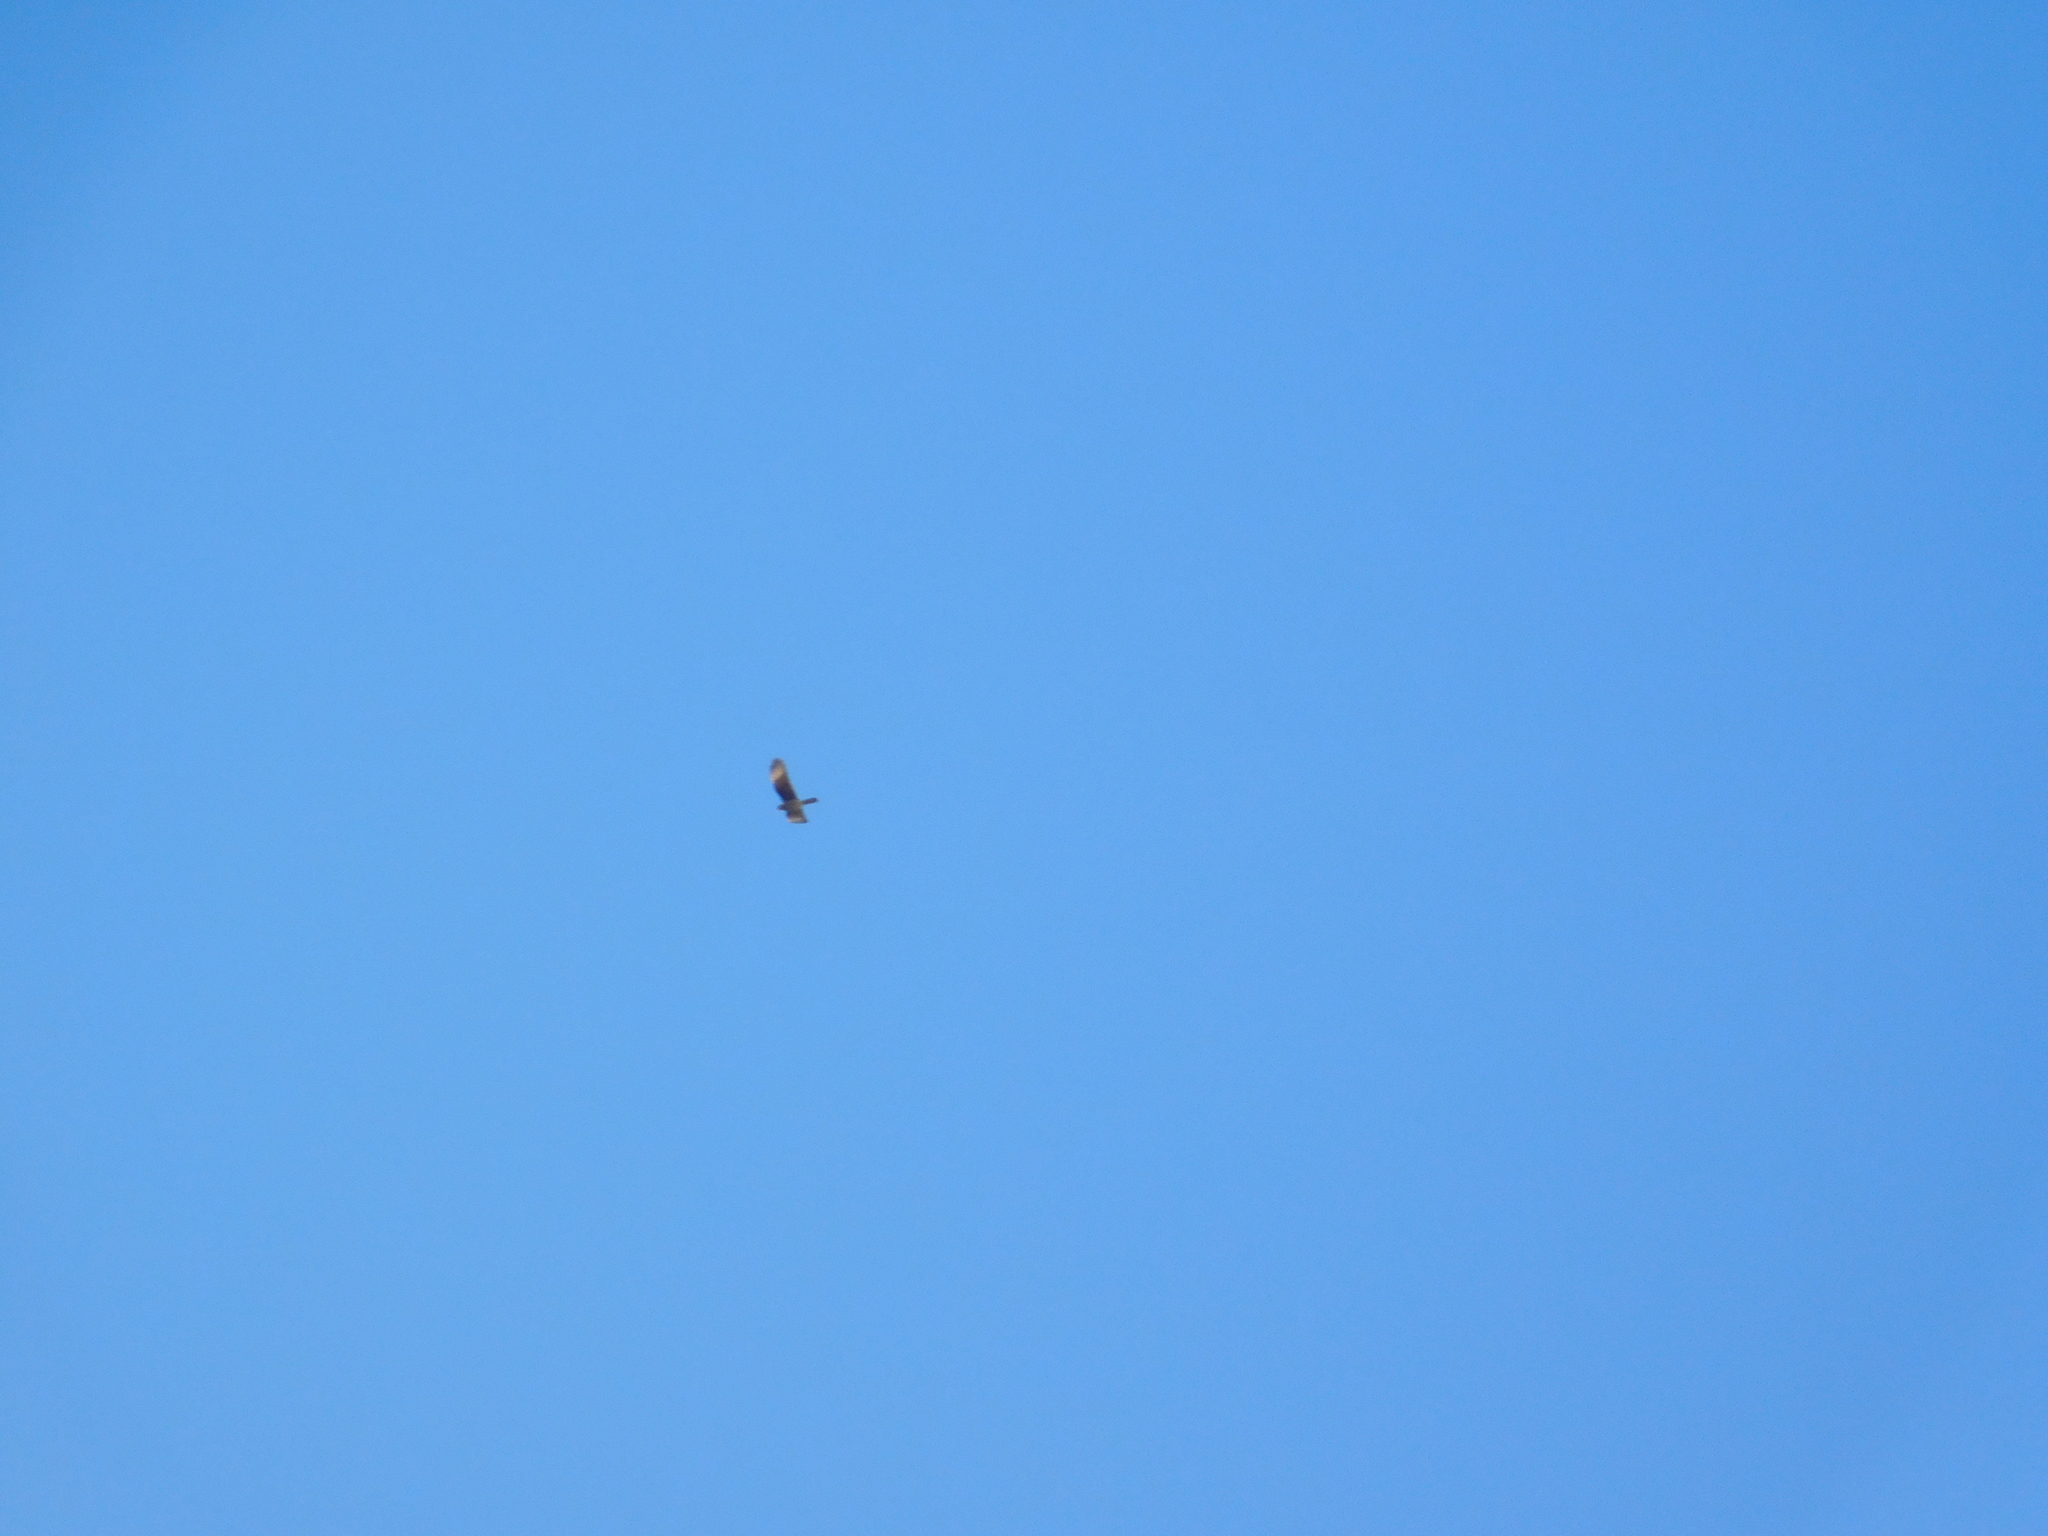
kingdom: Animalia
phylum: Chordata
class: Aves
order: Falconiformes
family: Falconidae
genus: Daptrius
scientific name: Daptrius
